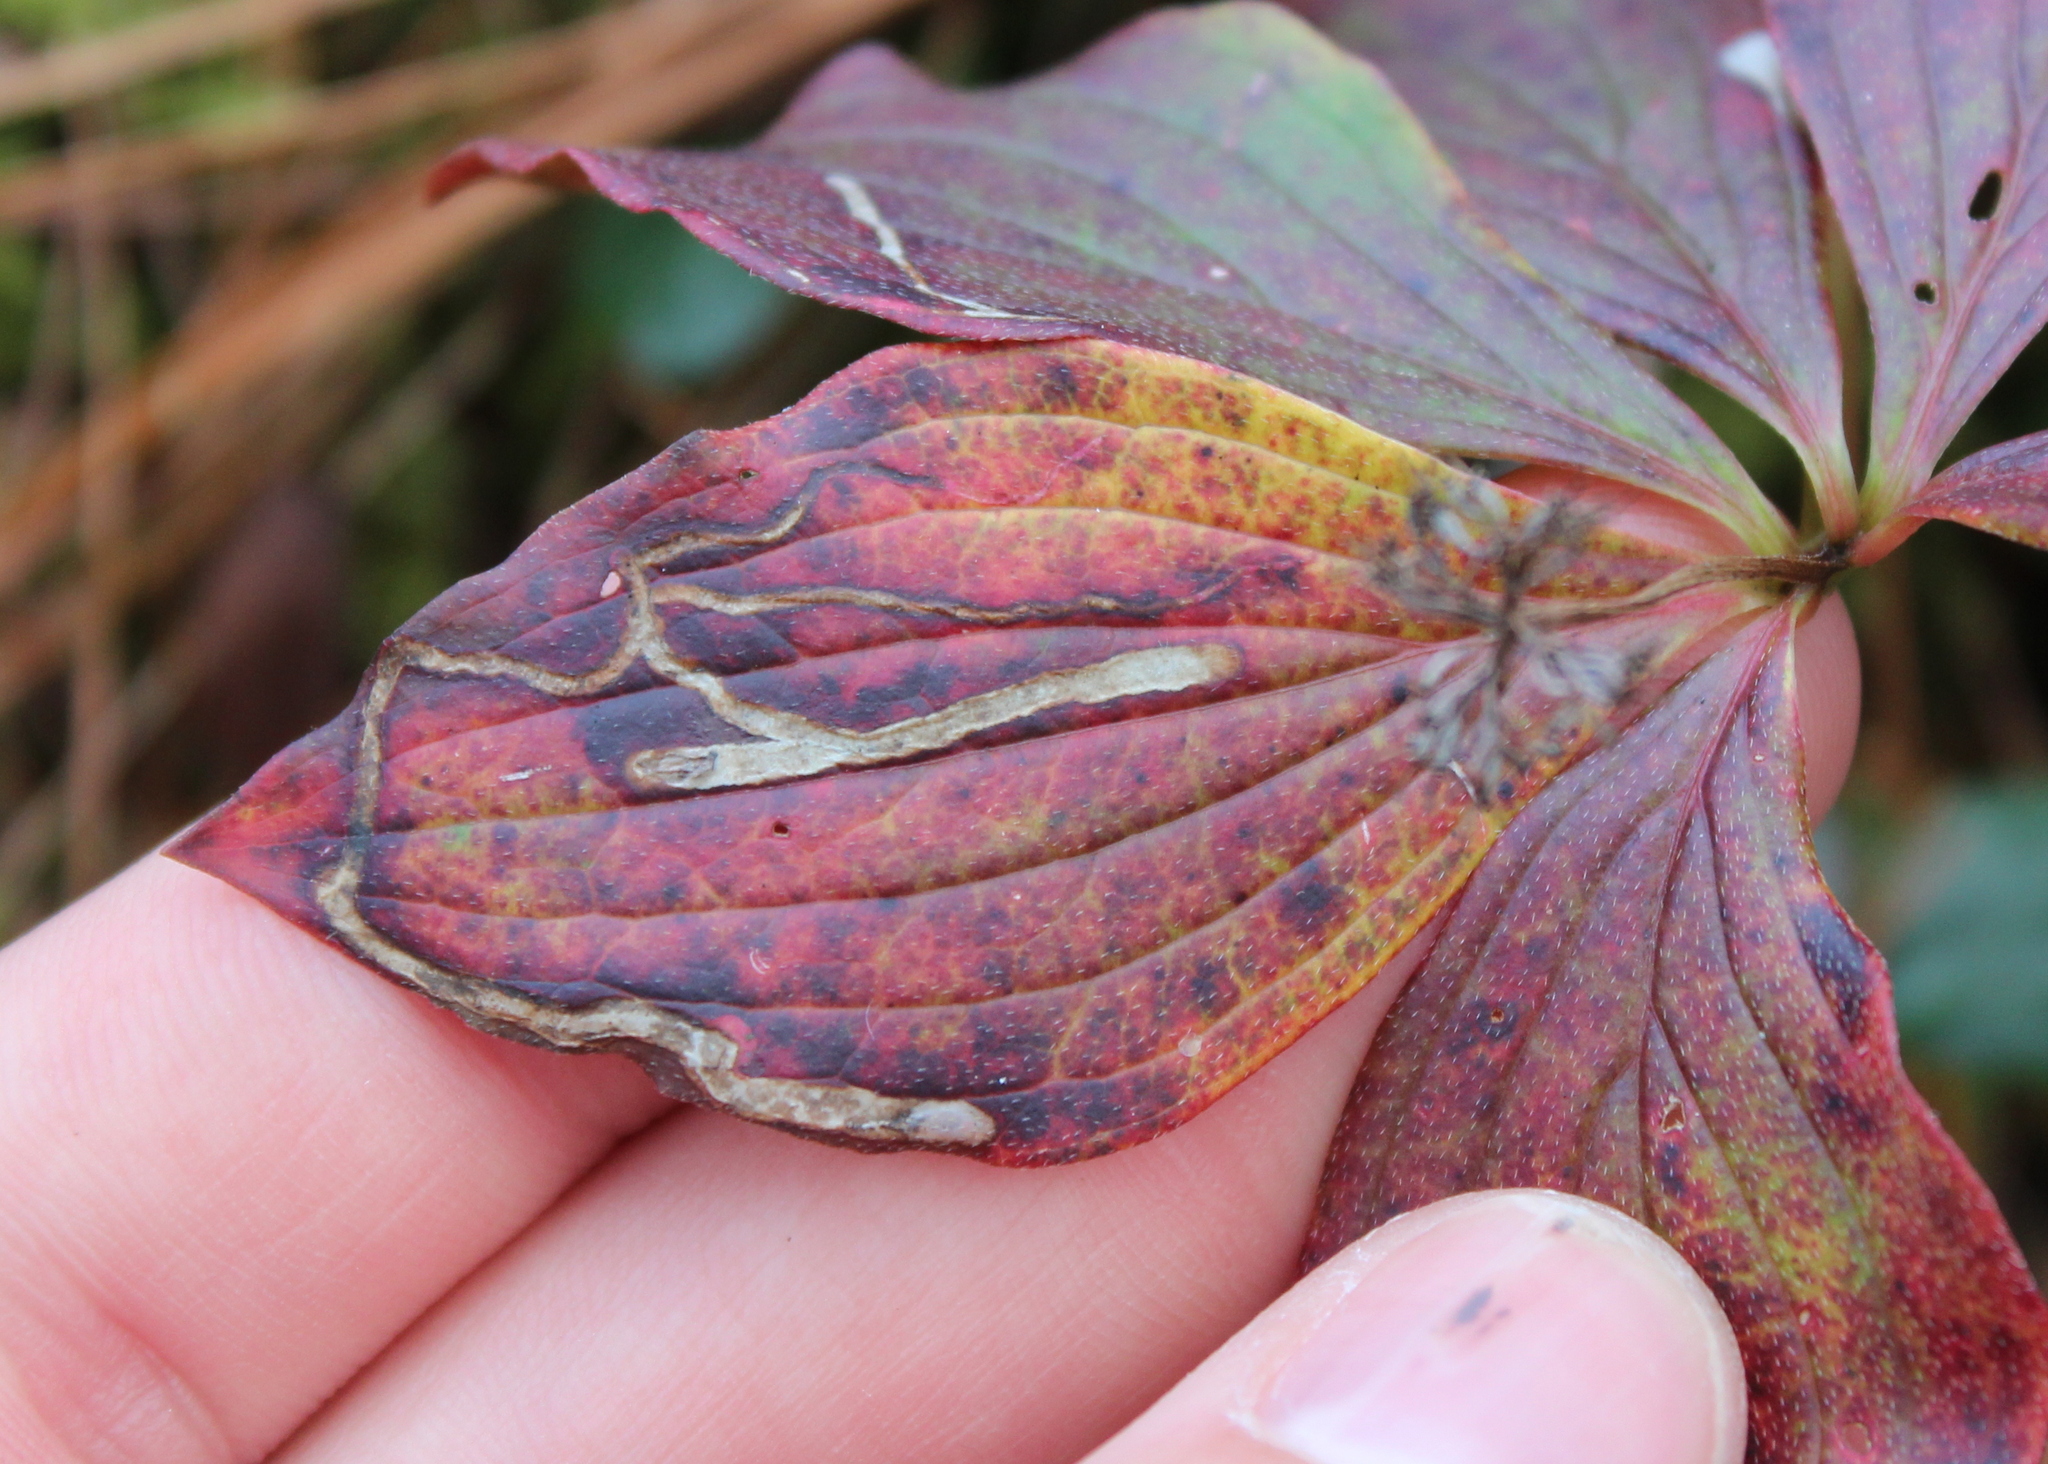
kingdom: Animalia
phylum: Arthropoda
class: Insecta
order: Diptera
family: Agromyzidae
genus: Phytomyza
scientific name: Phytomyza agromyzina
